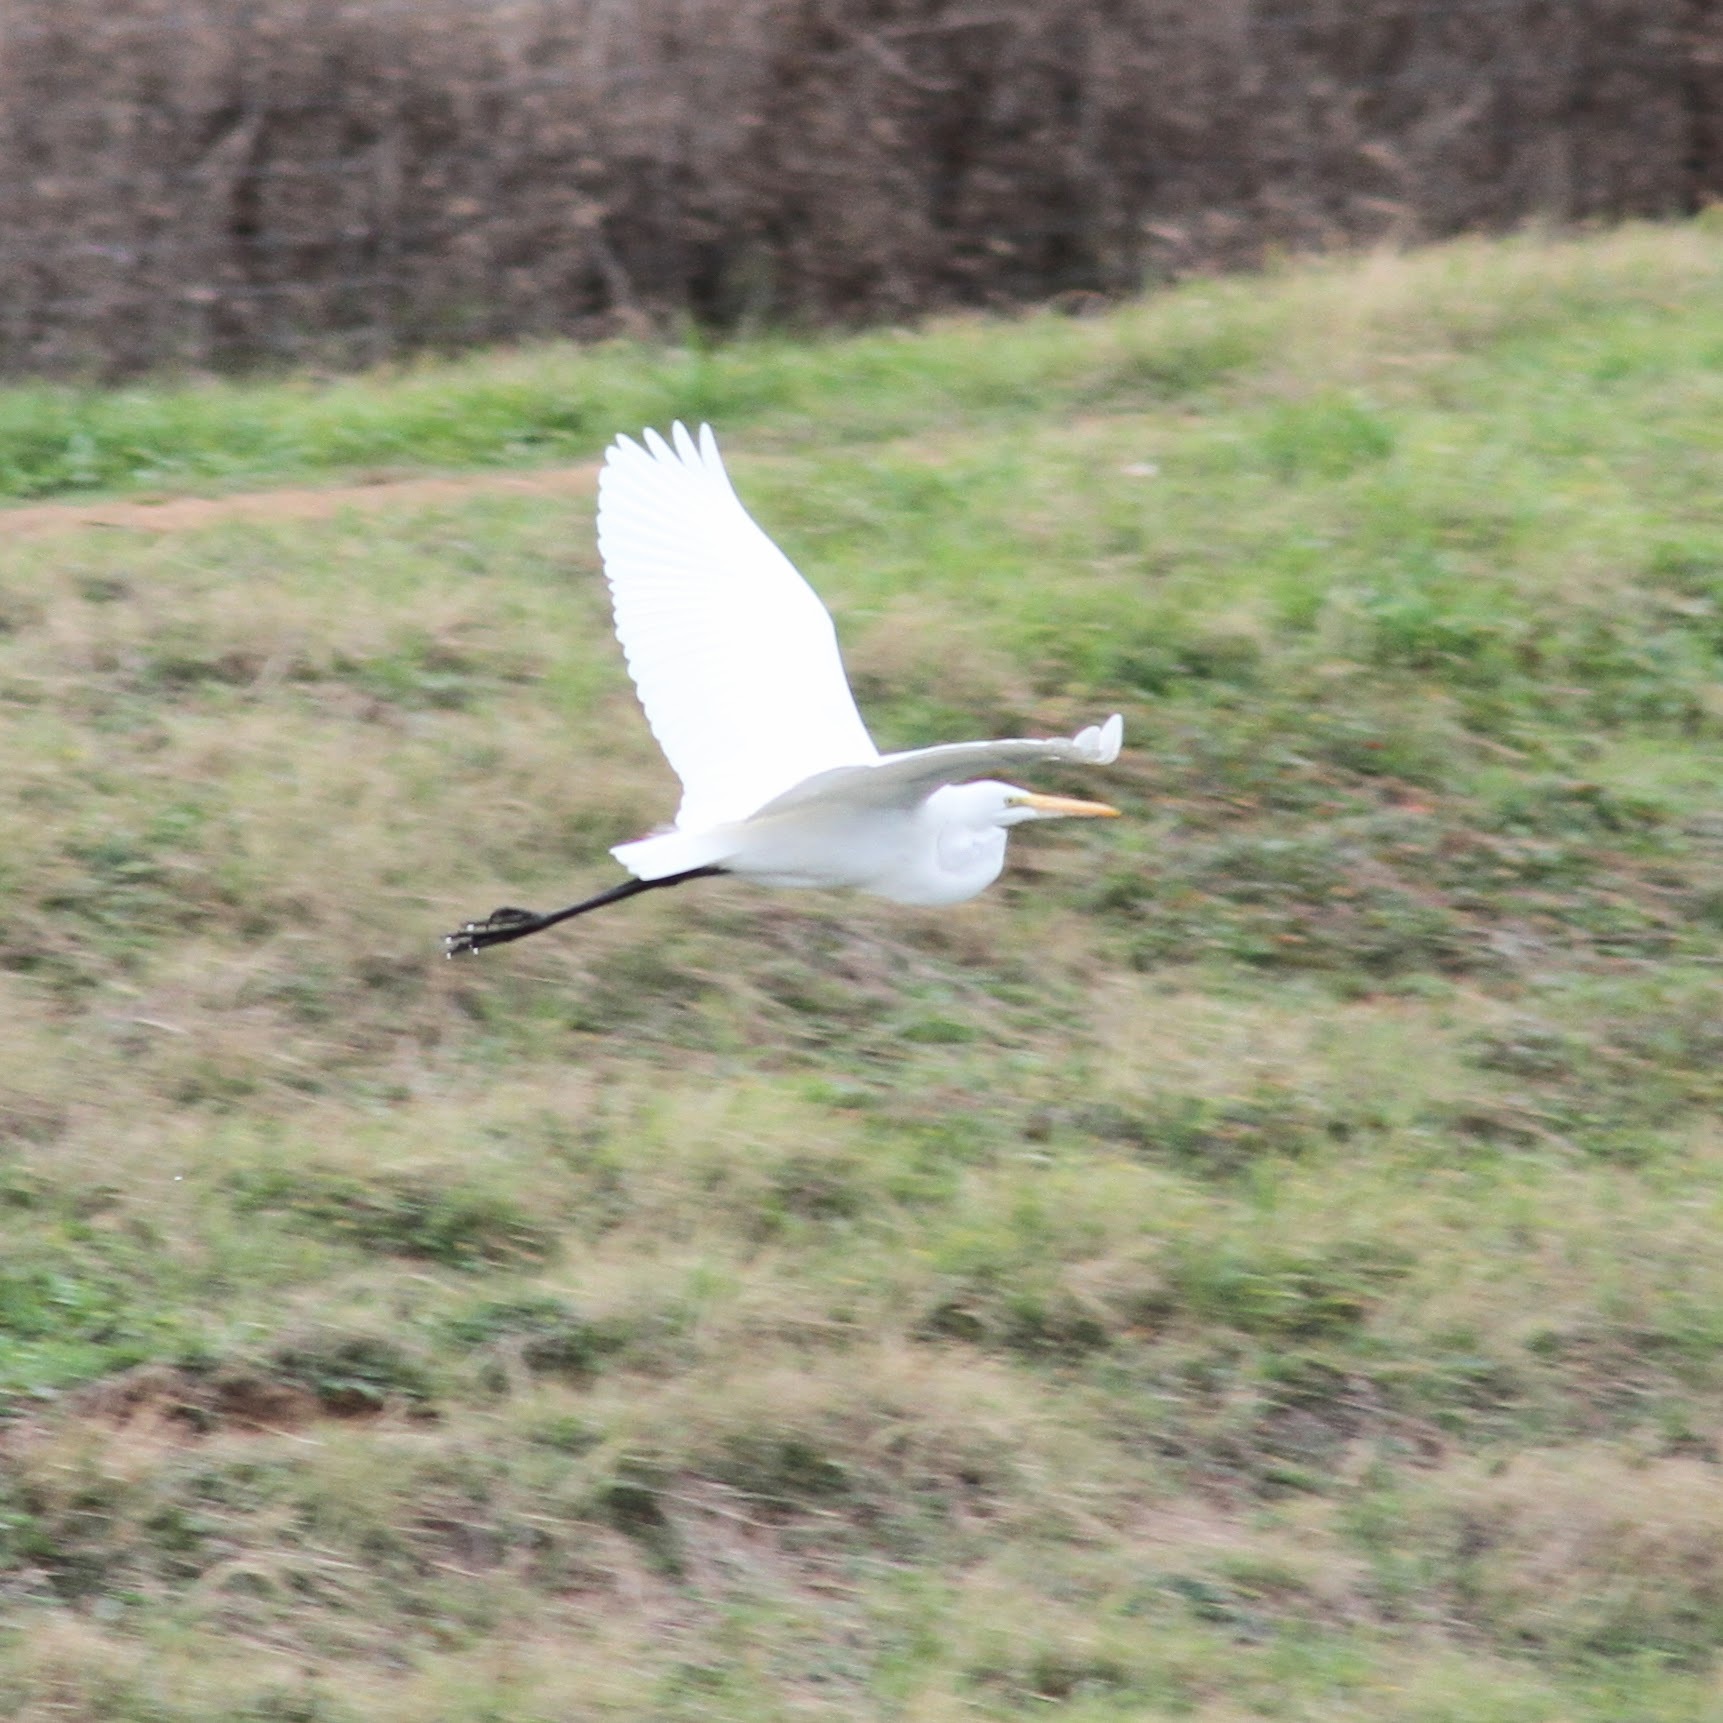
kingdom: Animalia
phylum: Chordata
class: Aves
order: Pelecaniformes
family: Ardeidae
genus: Ardea
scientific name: Ardea alba
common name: Great egret
